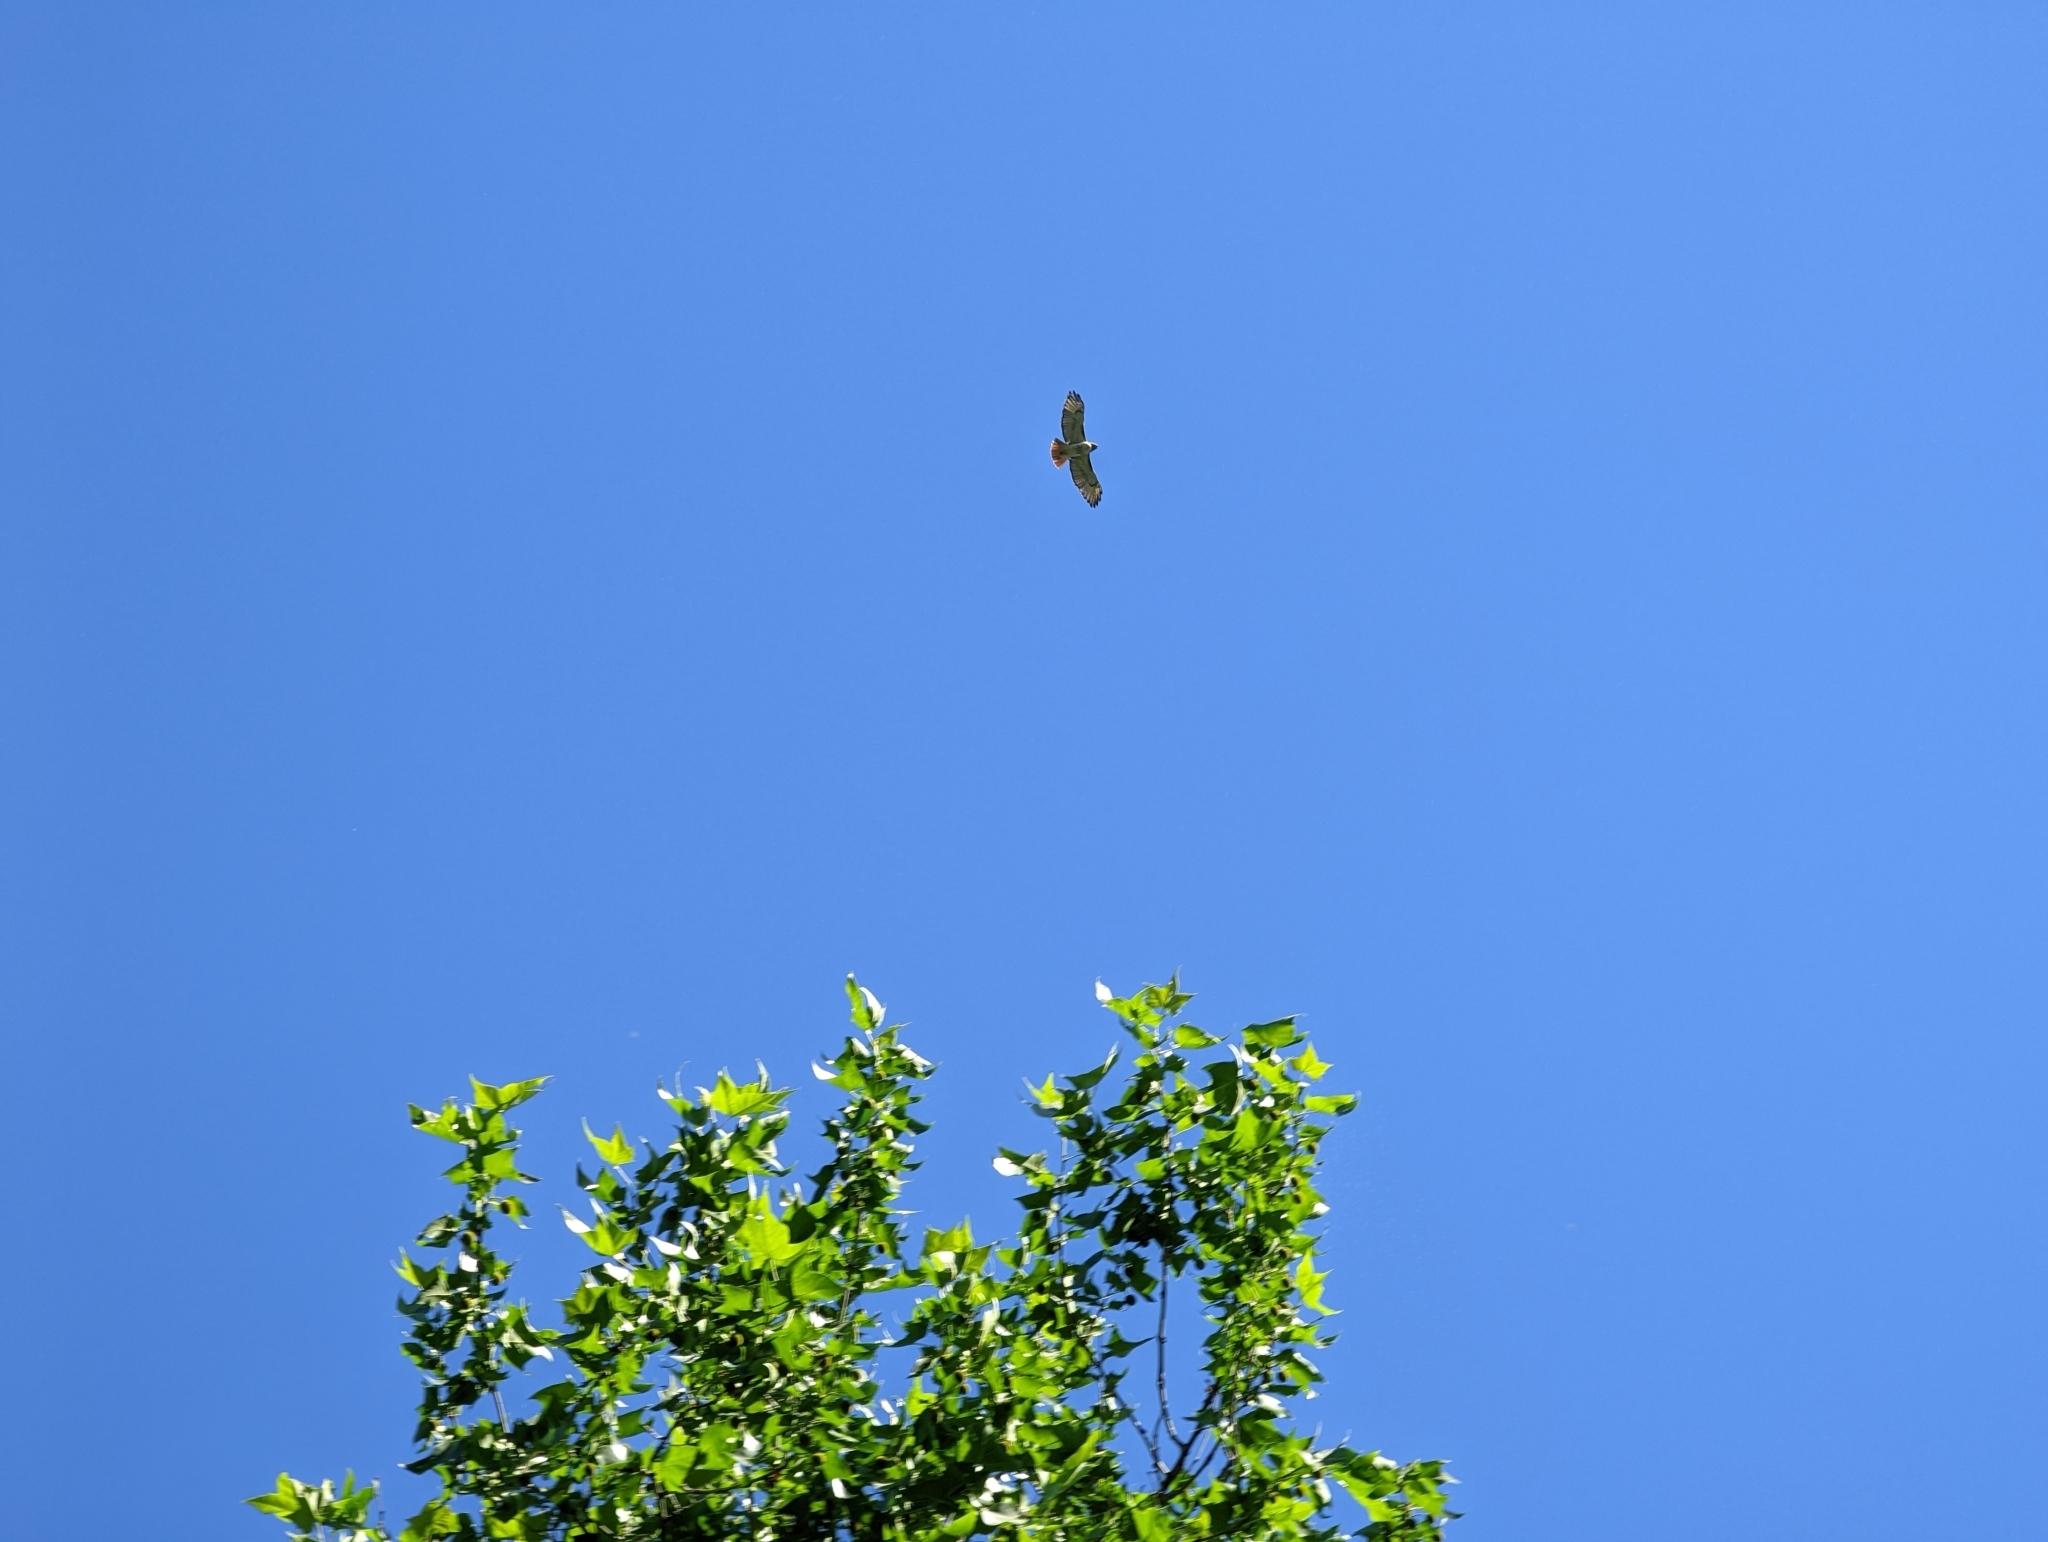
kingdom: Animalia
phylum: Chordata
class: Aves
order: Accipitriformes
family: Accipitridae
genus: Buteo
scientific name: Buteo jamaicensis
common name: Red-tailed hawk
